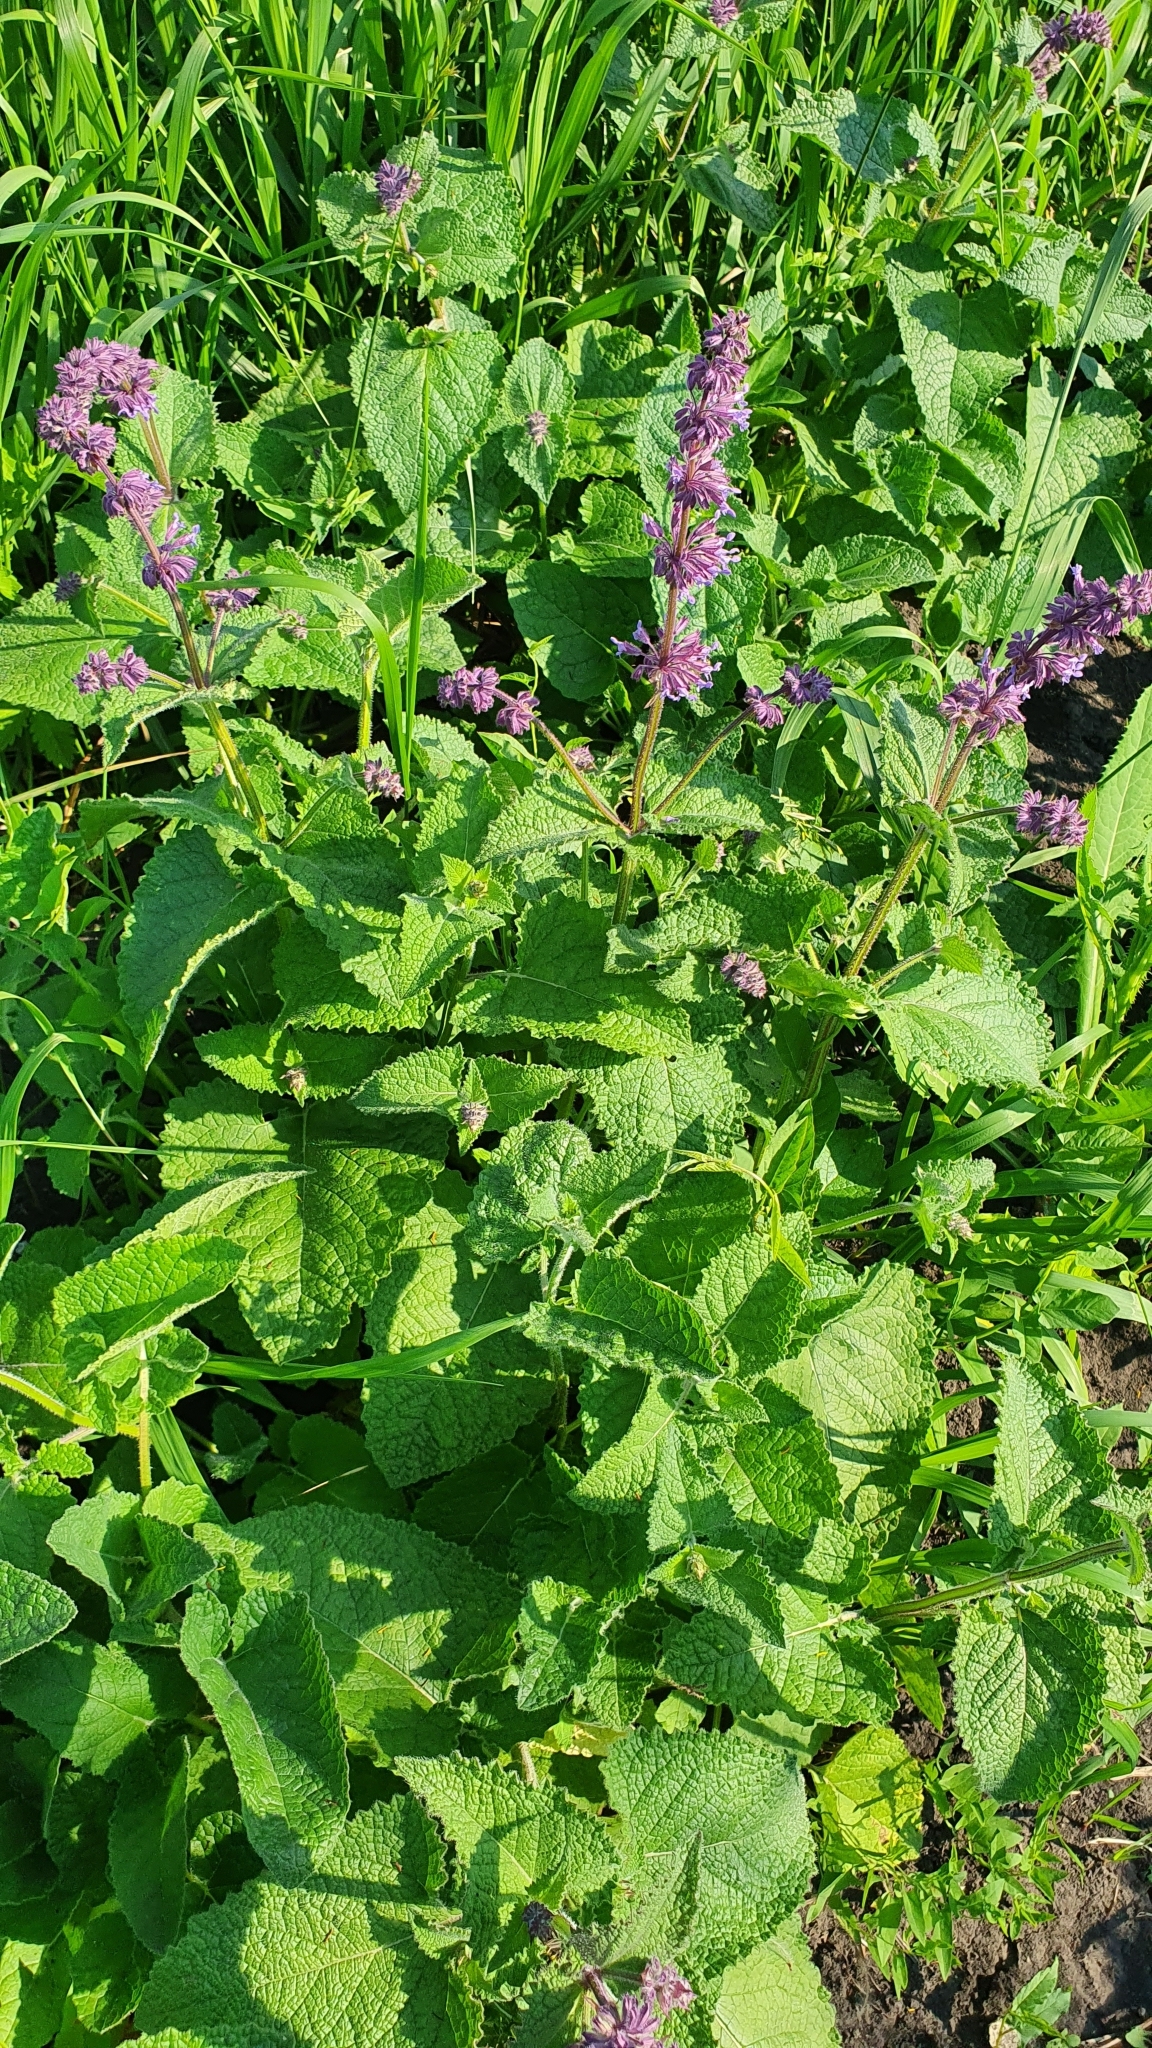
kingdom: Plantae
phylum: Tracheophyta
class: Magnoliopsida
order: Lamiales
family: Lamiaceae
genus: Salvia
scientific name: Salvia verticillata
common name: Whorled clary
